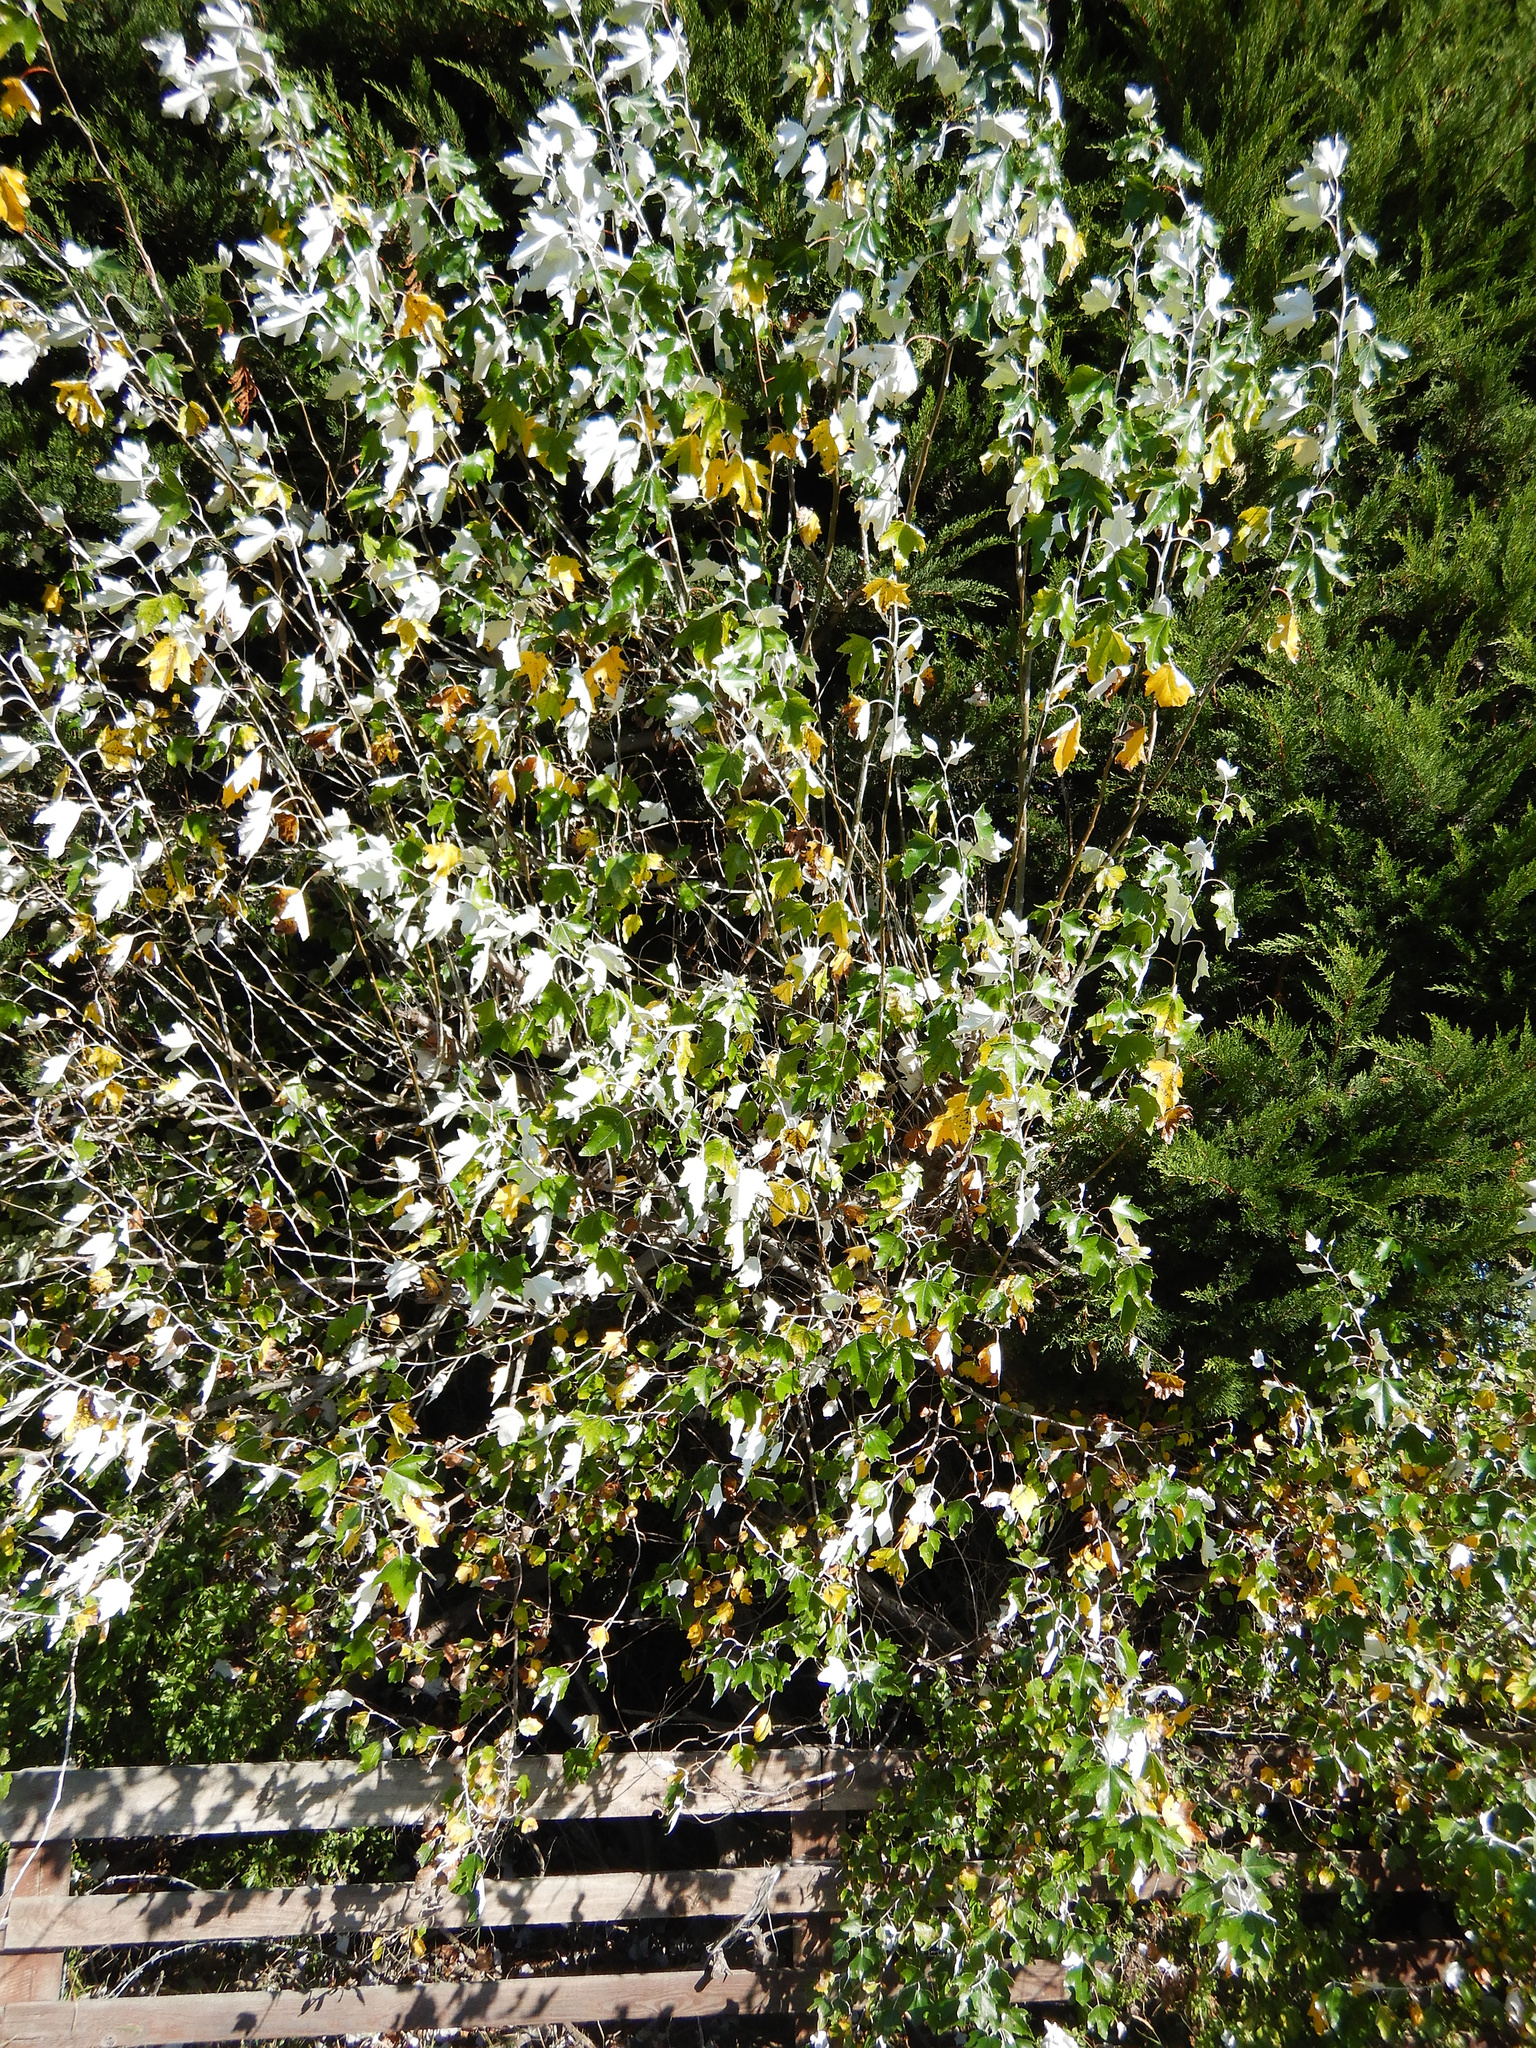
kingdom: Plantae
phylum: Tracheophyta
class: Magnoliopsida
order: Malpighiales
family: Salicaceae
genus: Populus
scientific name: Populus alba
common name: White poplar
